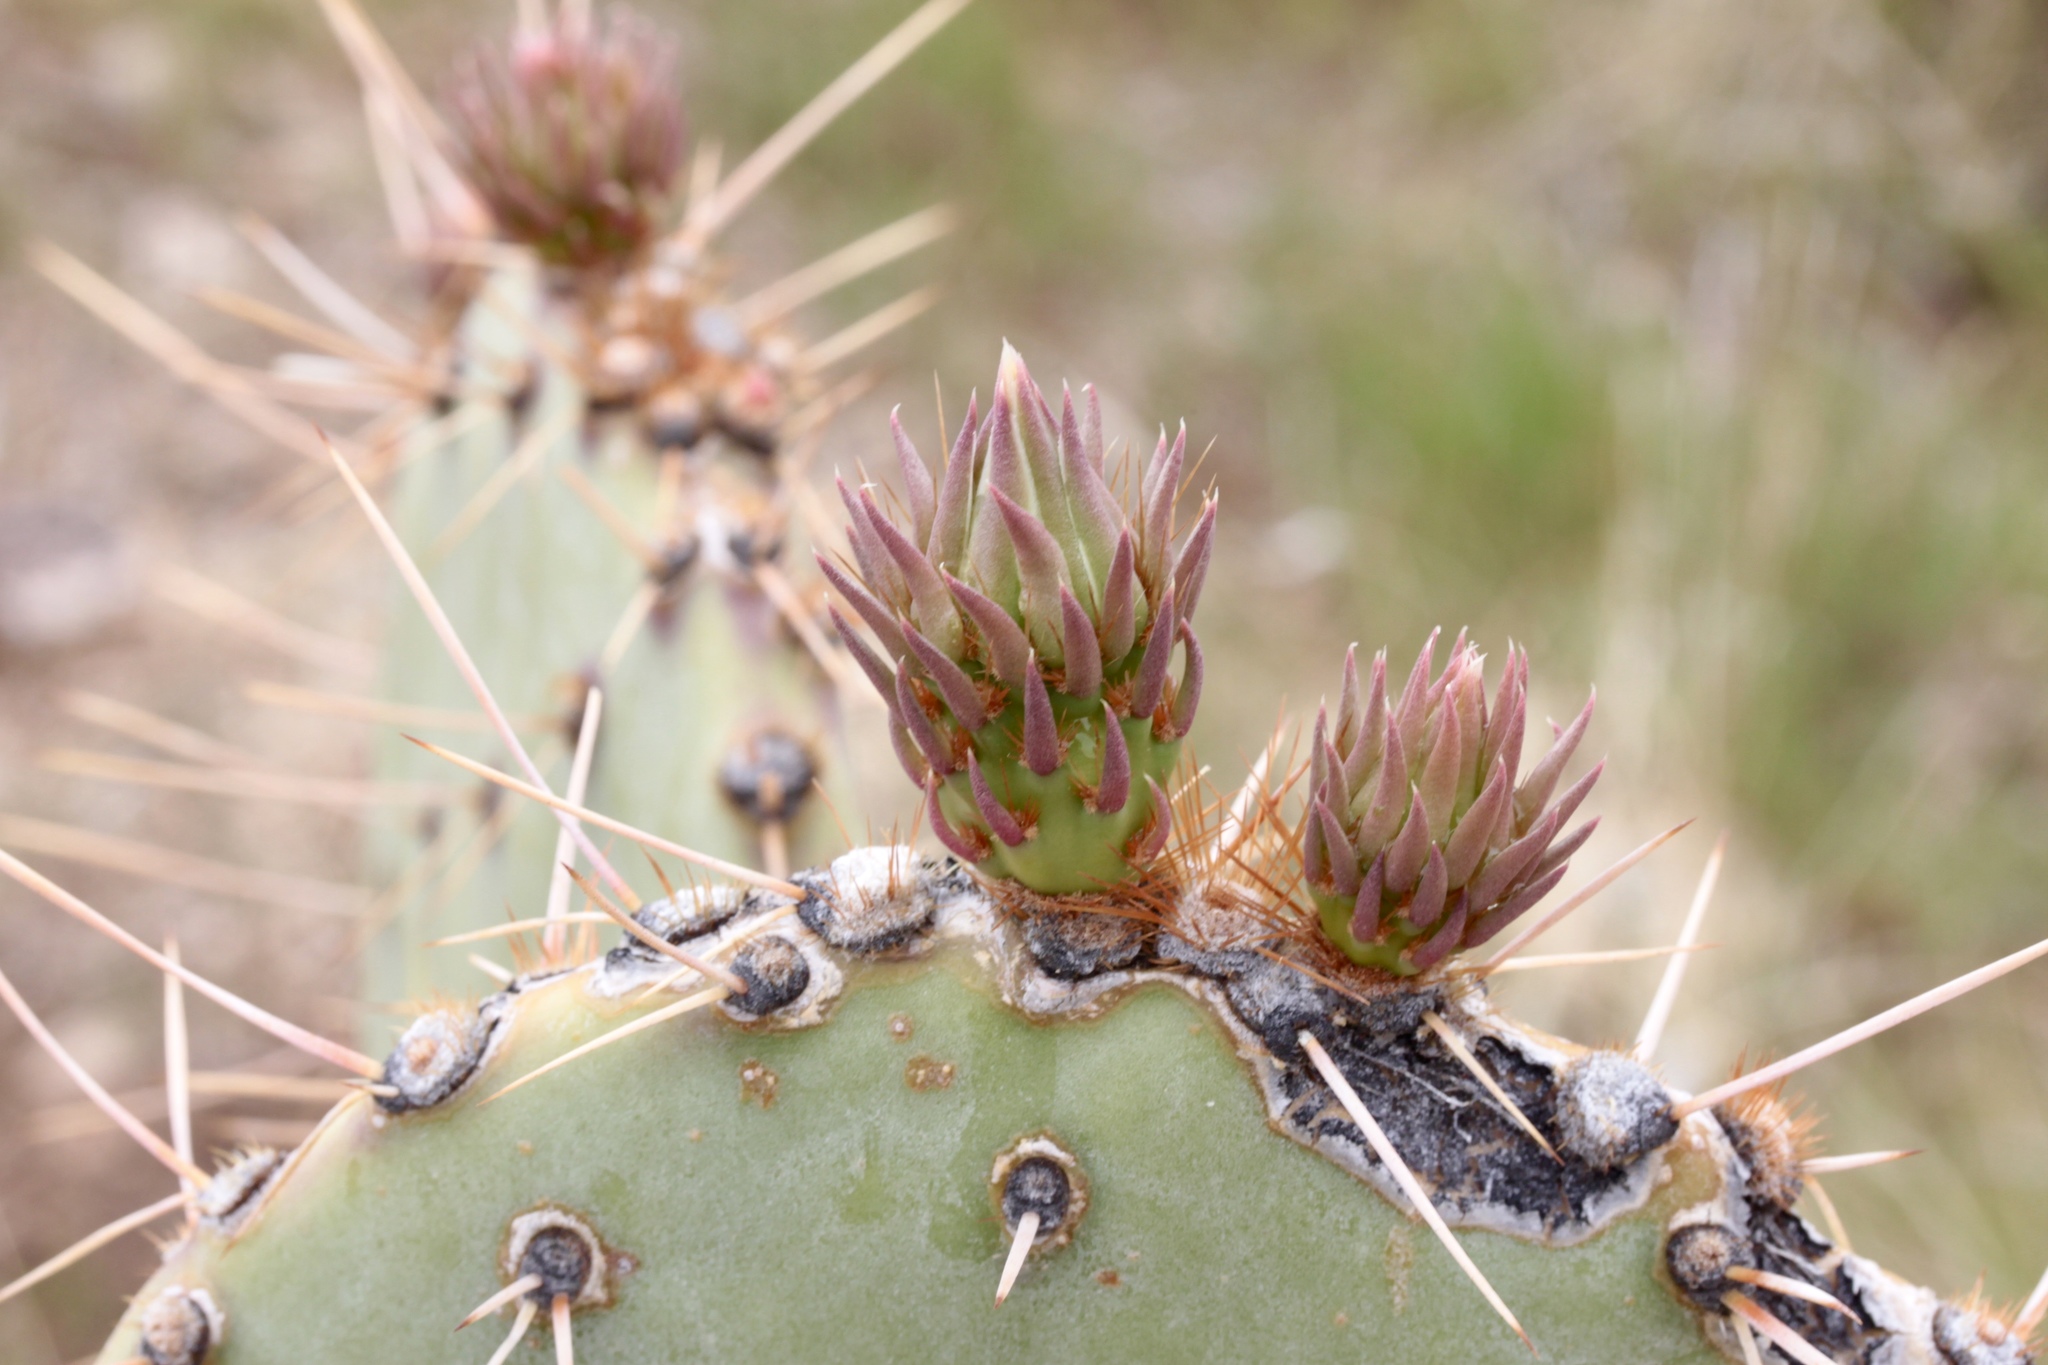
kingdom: Plantae
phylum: Tracheophyta
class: Magnoliopsida
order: Caryophyllales
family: Cactaceae
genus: Opuntia
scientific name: Opuntia engelmannii
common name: Cactus-apple
